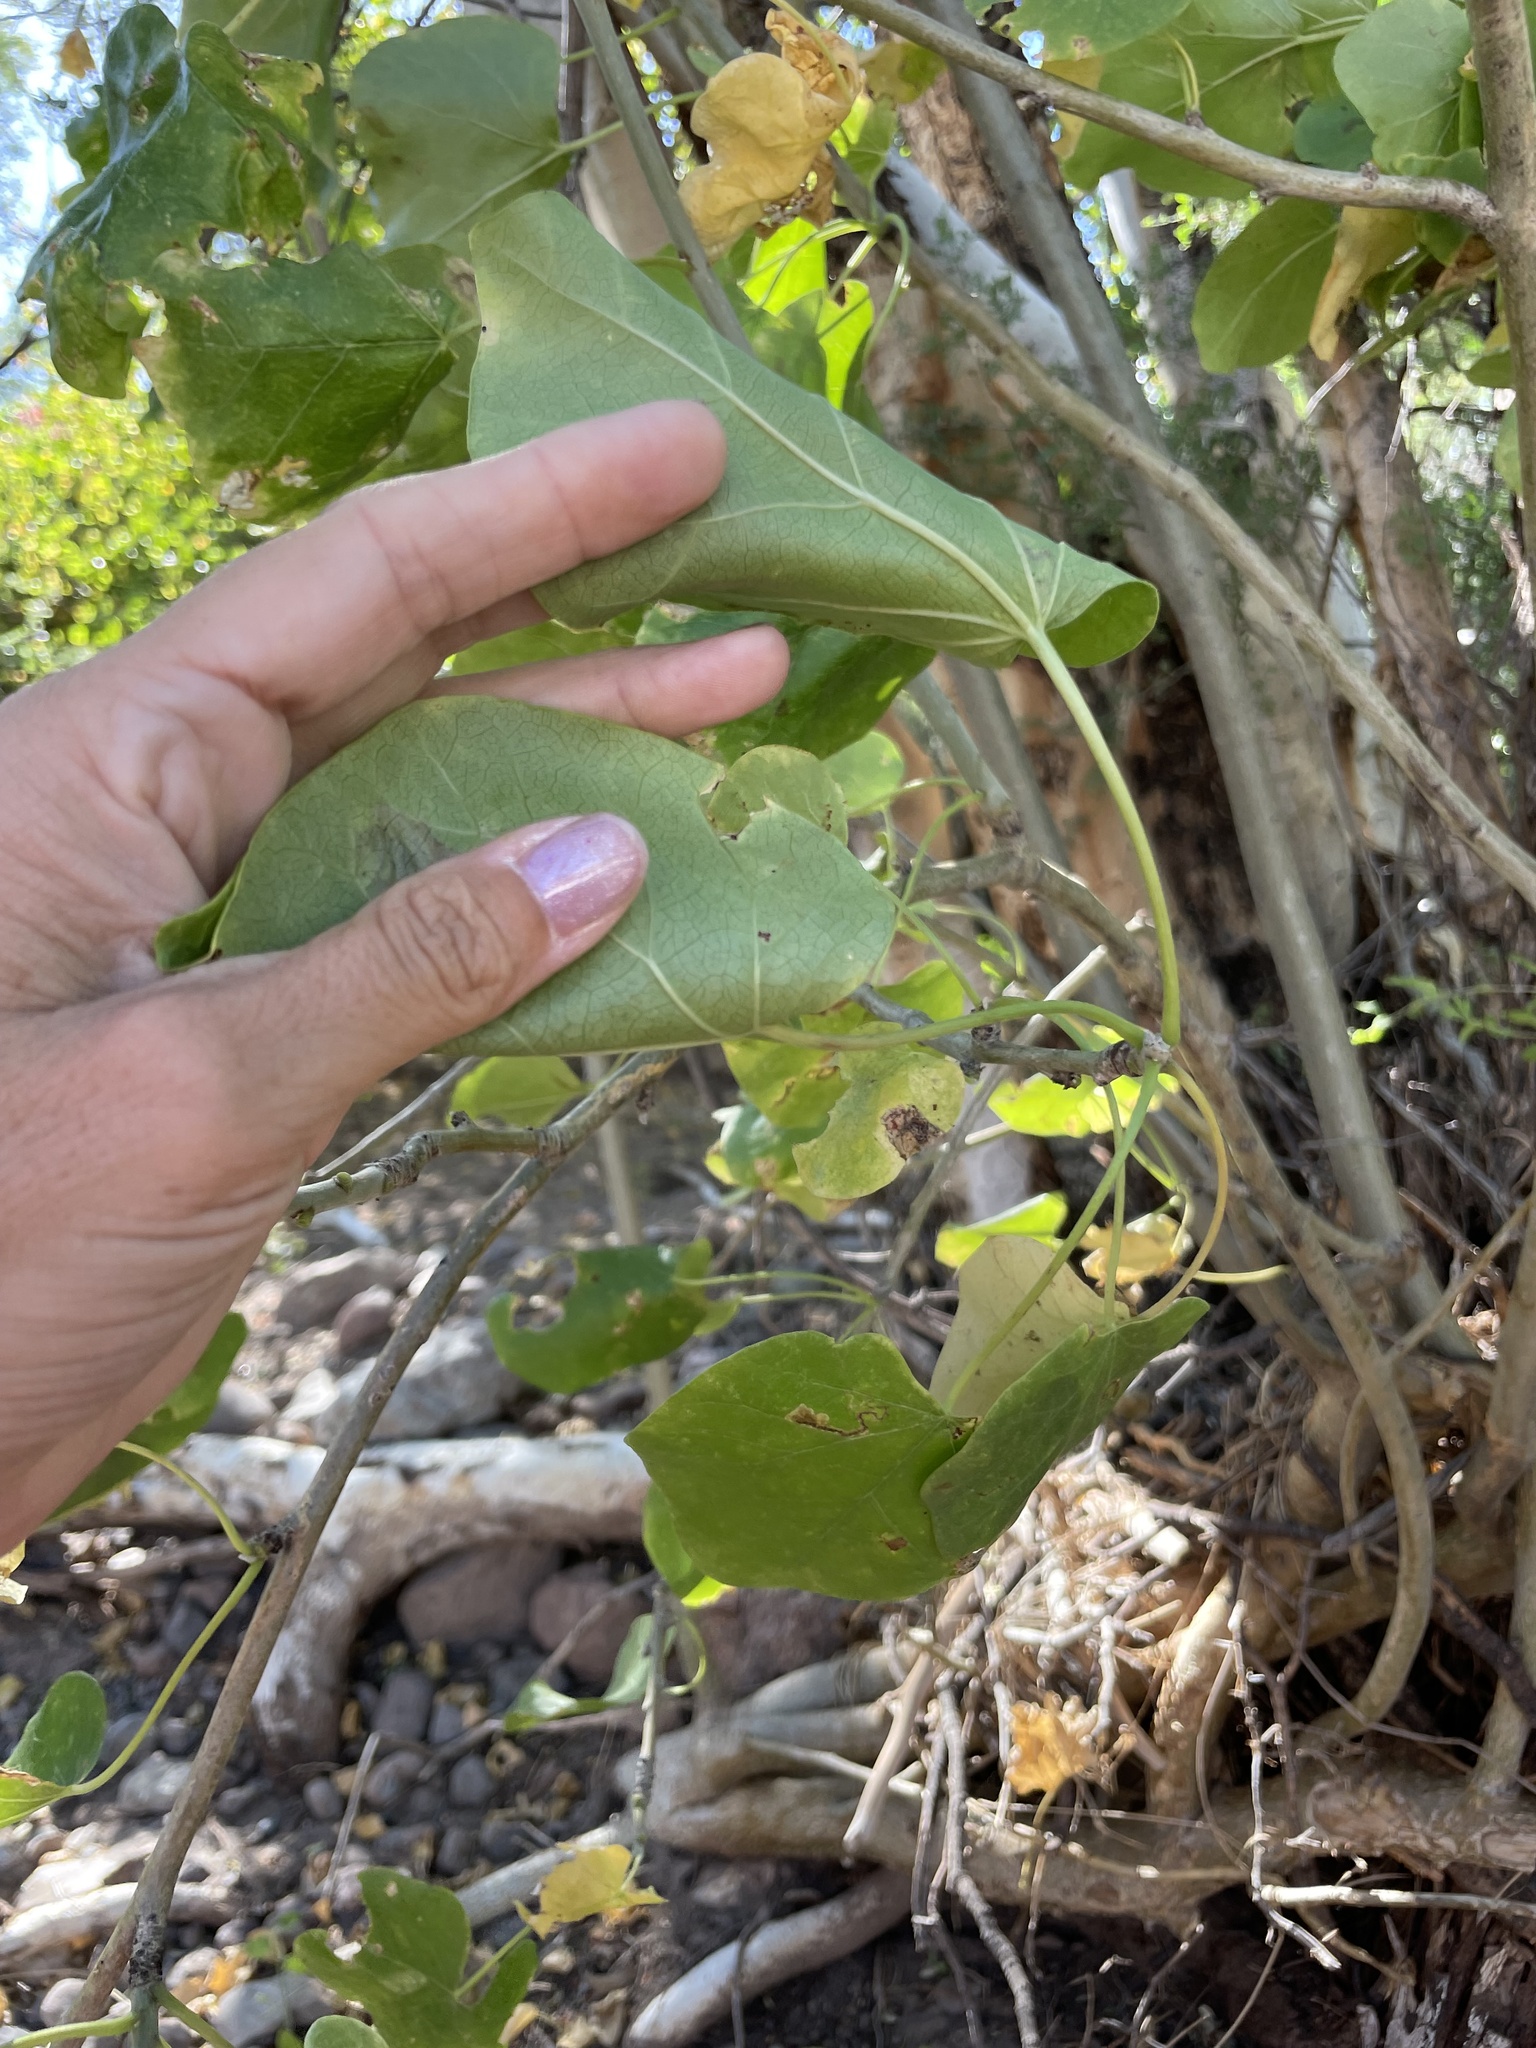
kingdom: Plantae
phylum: Tracheophyta
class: Magnoliopsida
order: Malpighiales
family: Euphorbiaceae
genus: Jatropha
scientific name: Jatropha cinerea
